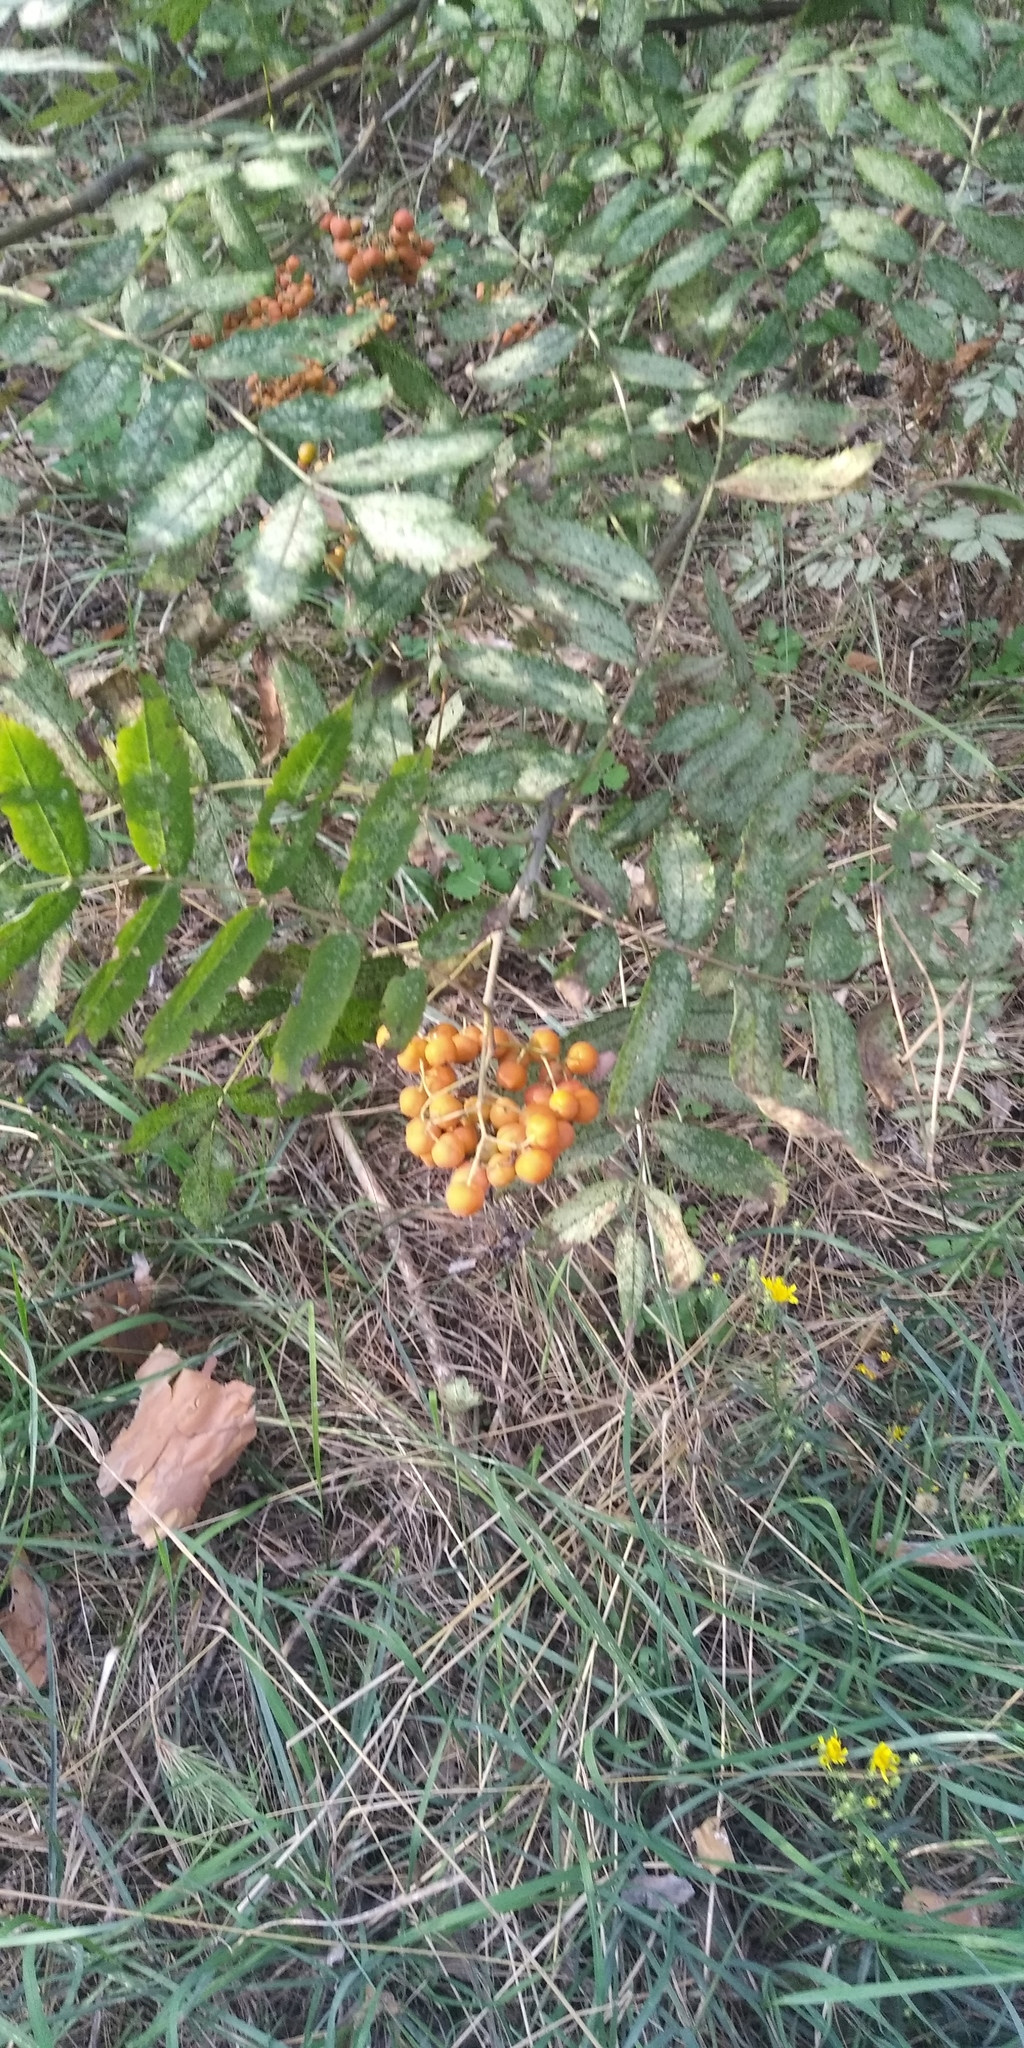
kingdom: Plantae
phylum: Tracheophyta
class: Magnoliopsida
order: Rosales
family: Rosaceae
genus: Sorbus
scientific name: Sorbus aucuparia
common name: Rowan
